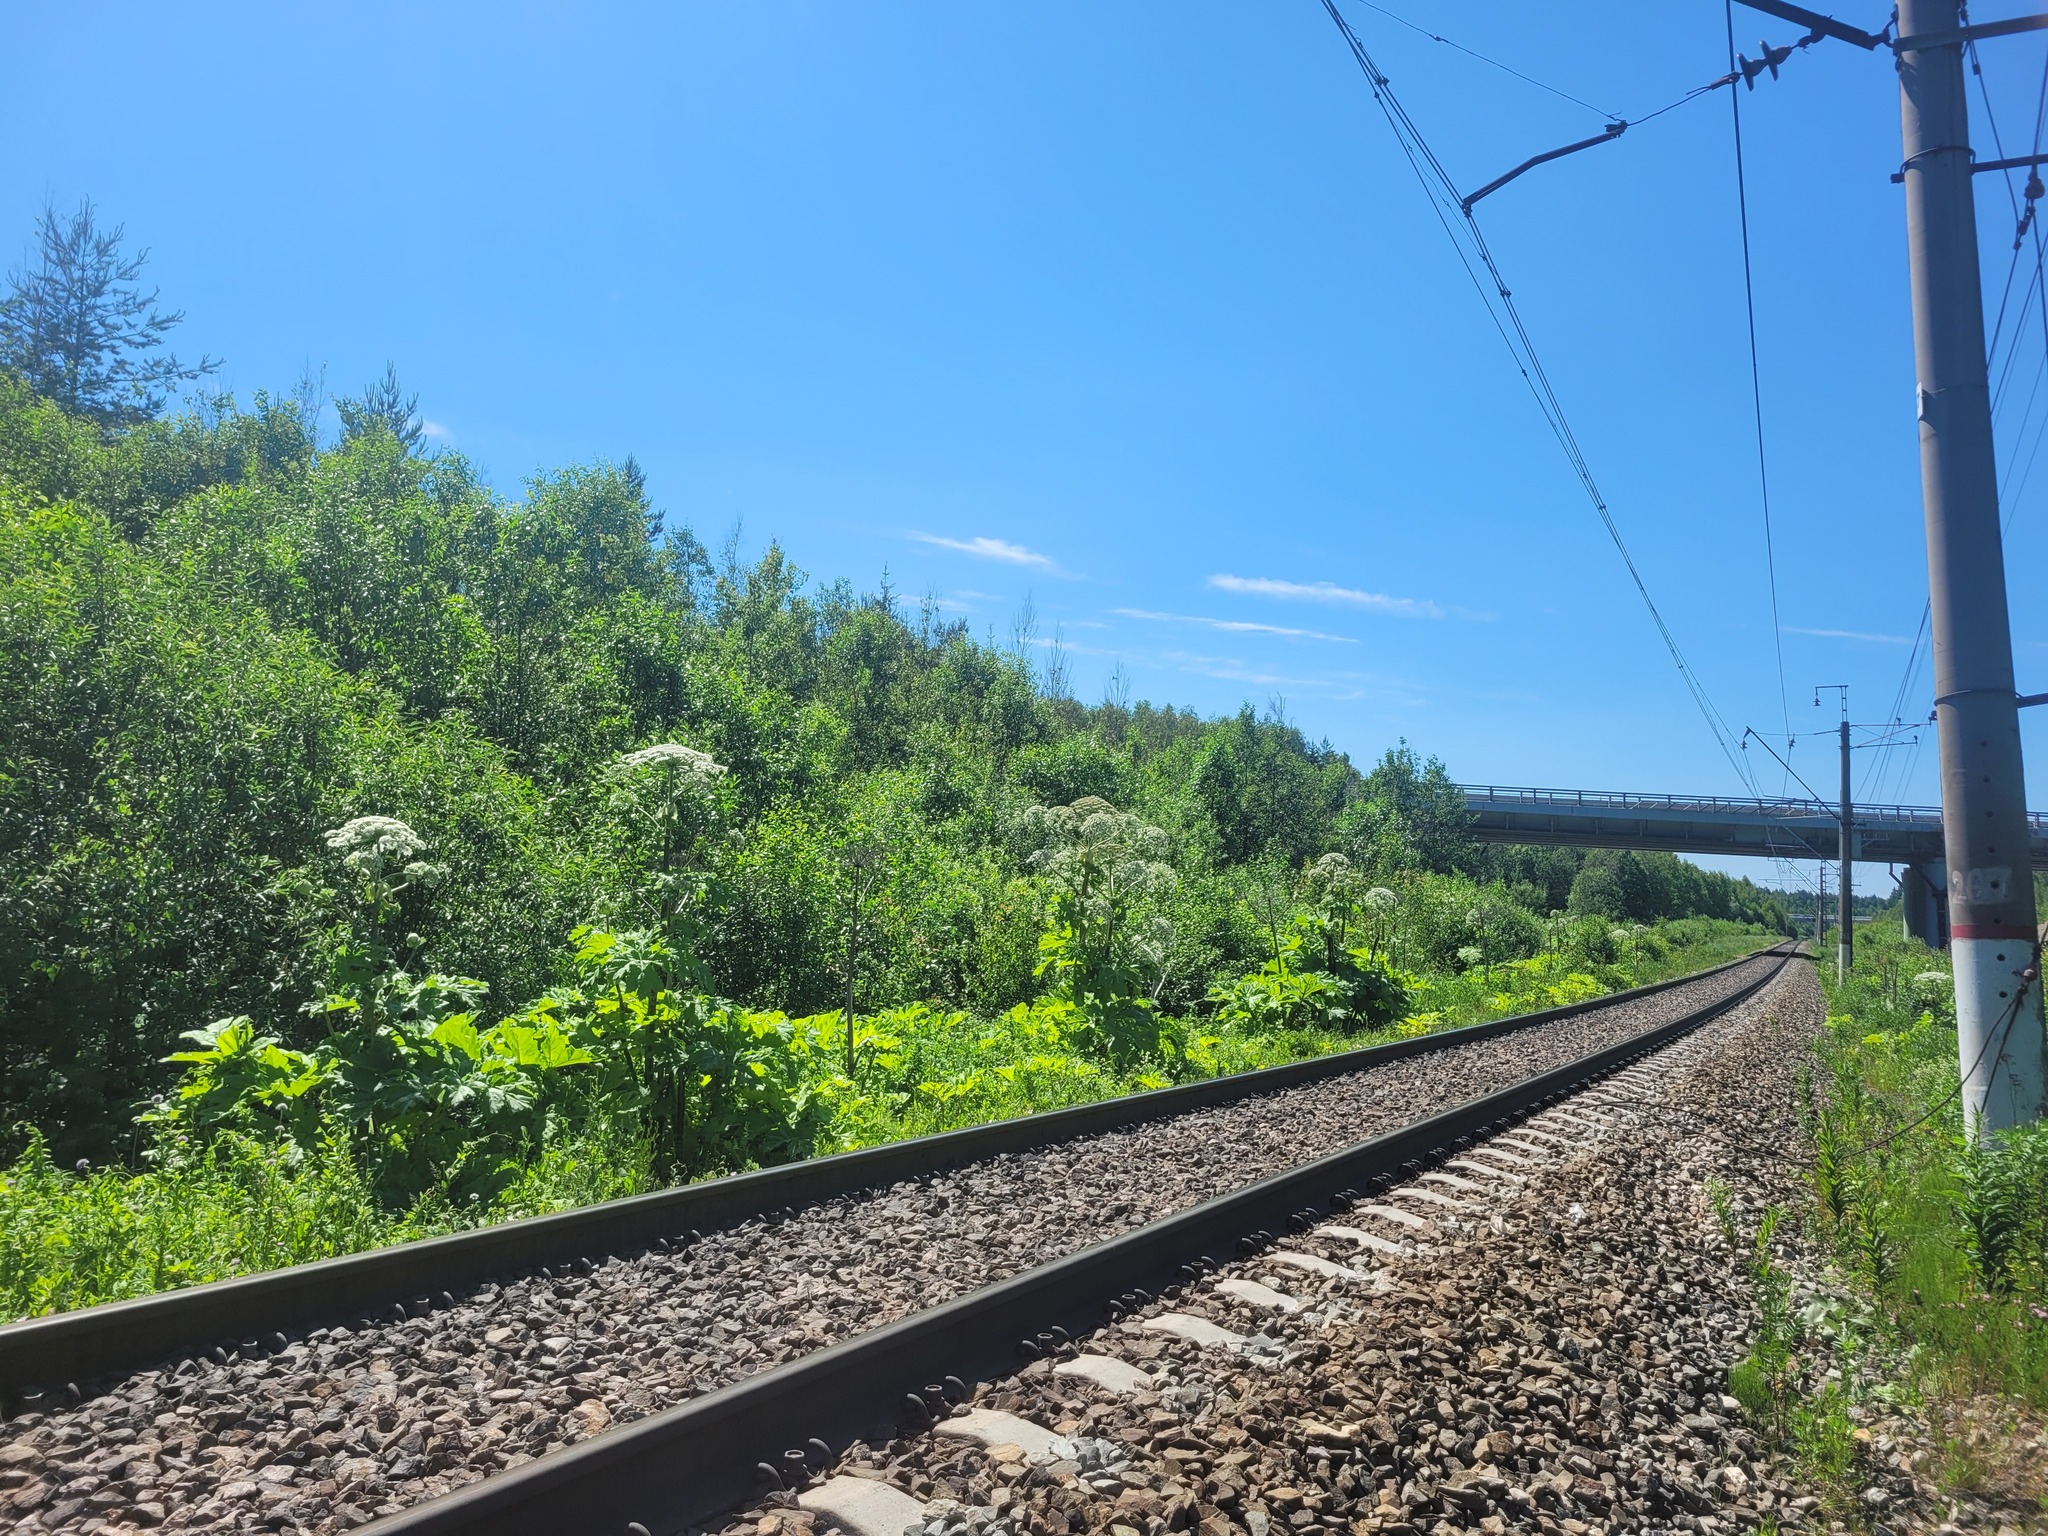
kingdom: Plantae
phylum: Tracheophyta
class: Magnoliopsida
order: Apiales
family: Apiaceae
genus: Heracleum
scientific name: Heracleum sosnowskyi
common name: Sosnowsky's hogweed
